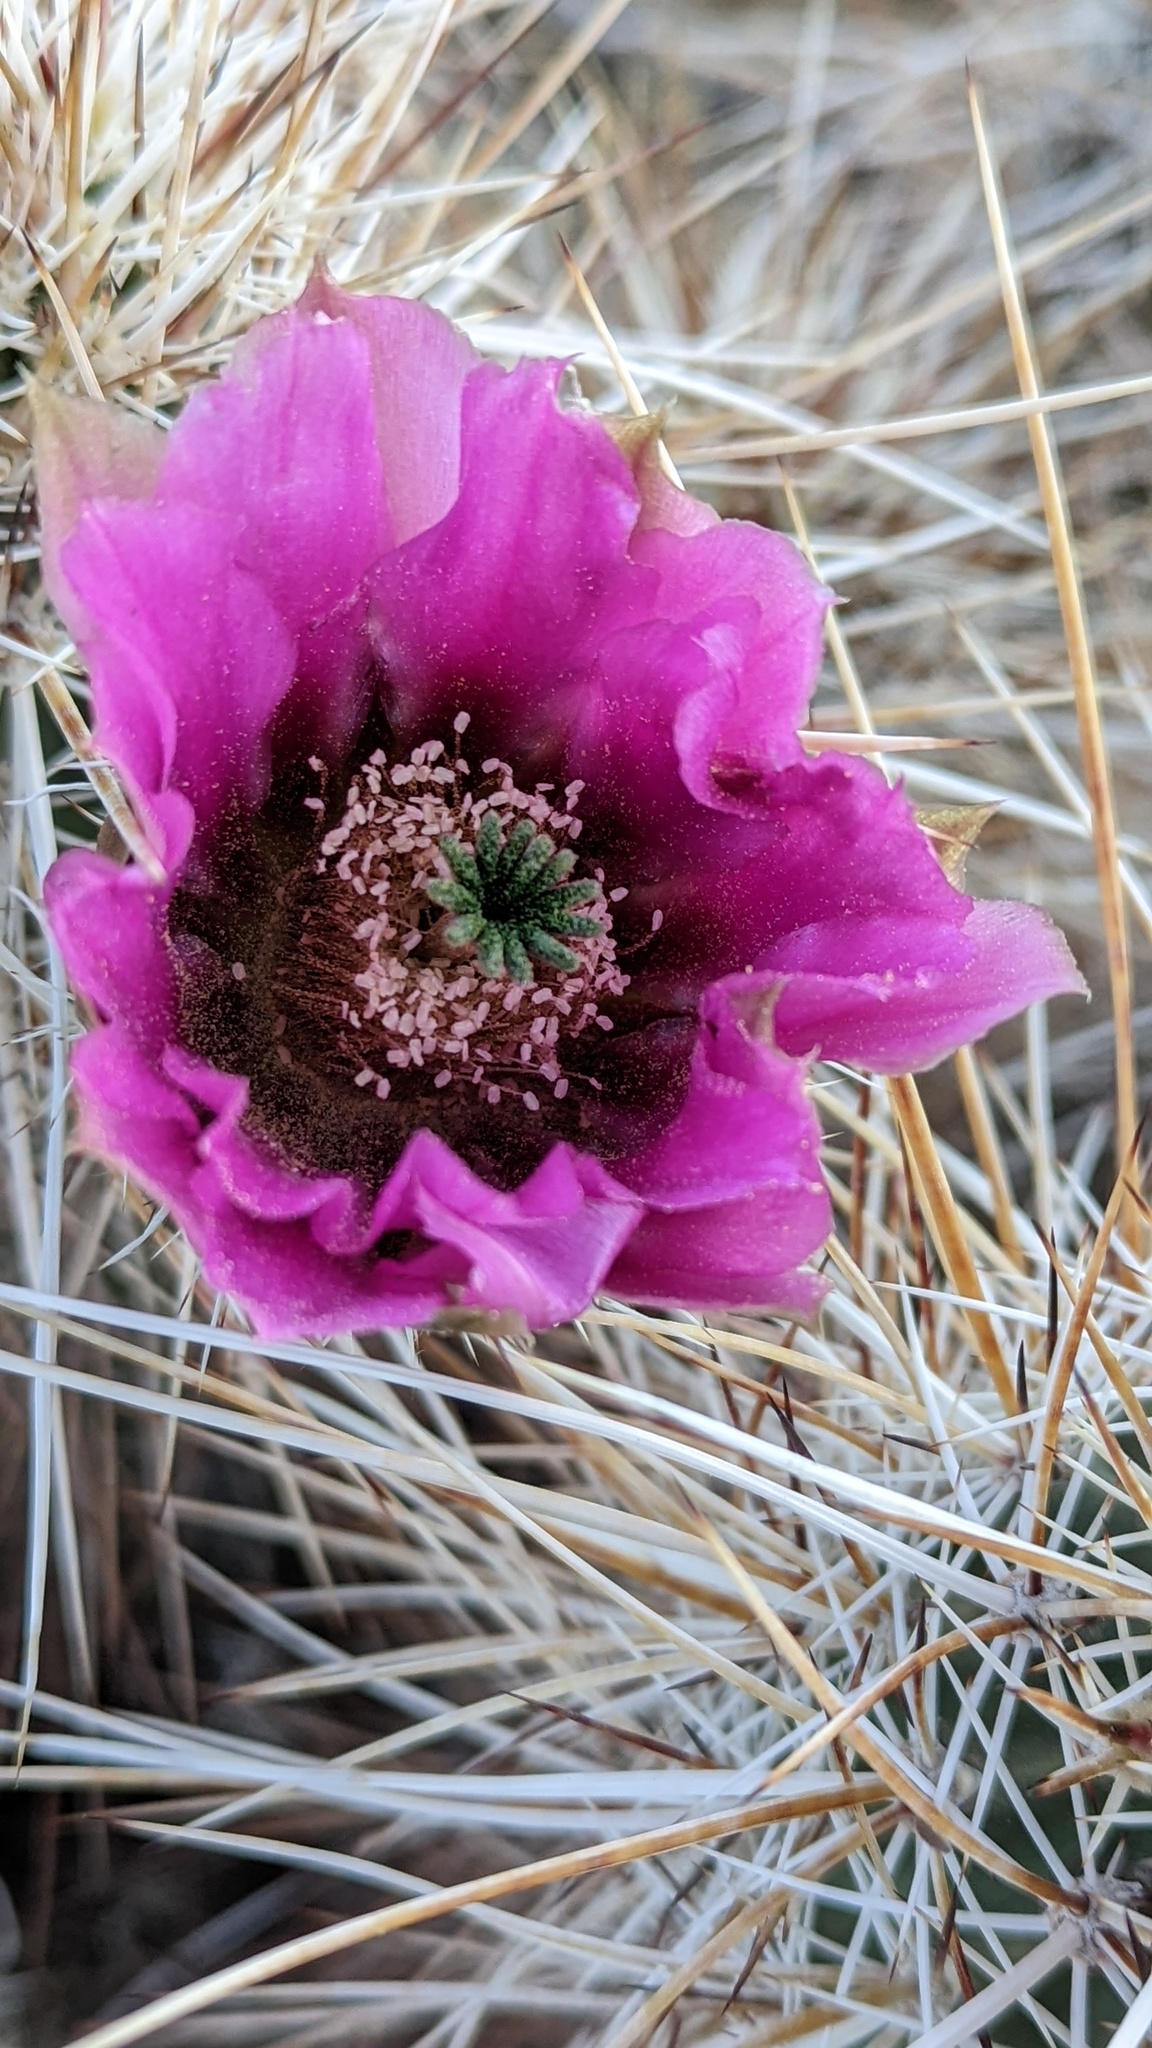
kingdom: Plantae
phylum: Tracheophyta
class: Magnoliopsida
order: Caryophyllales
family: Cactaceae
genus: Echinocereus
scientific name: Echinocereus engelmannii
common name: Engelmann's hedgehog cactus
